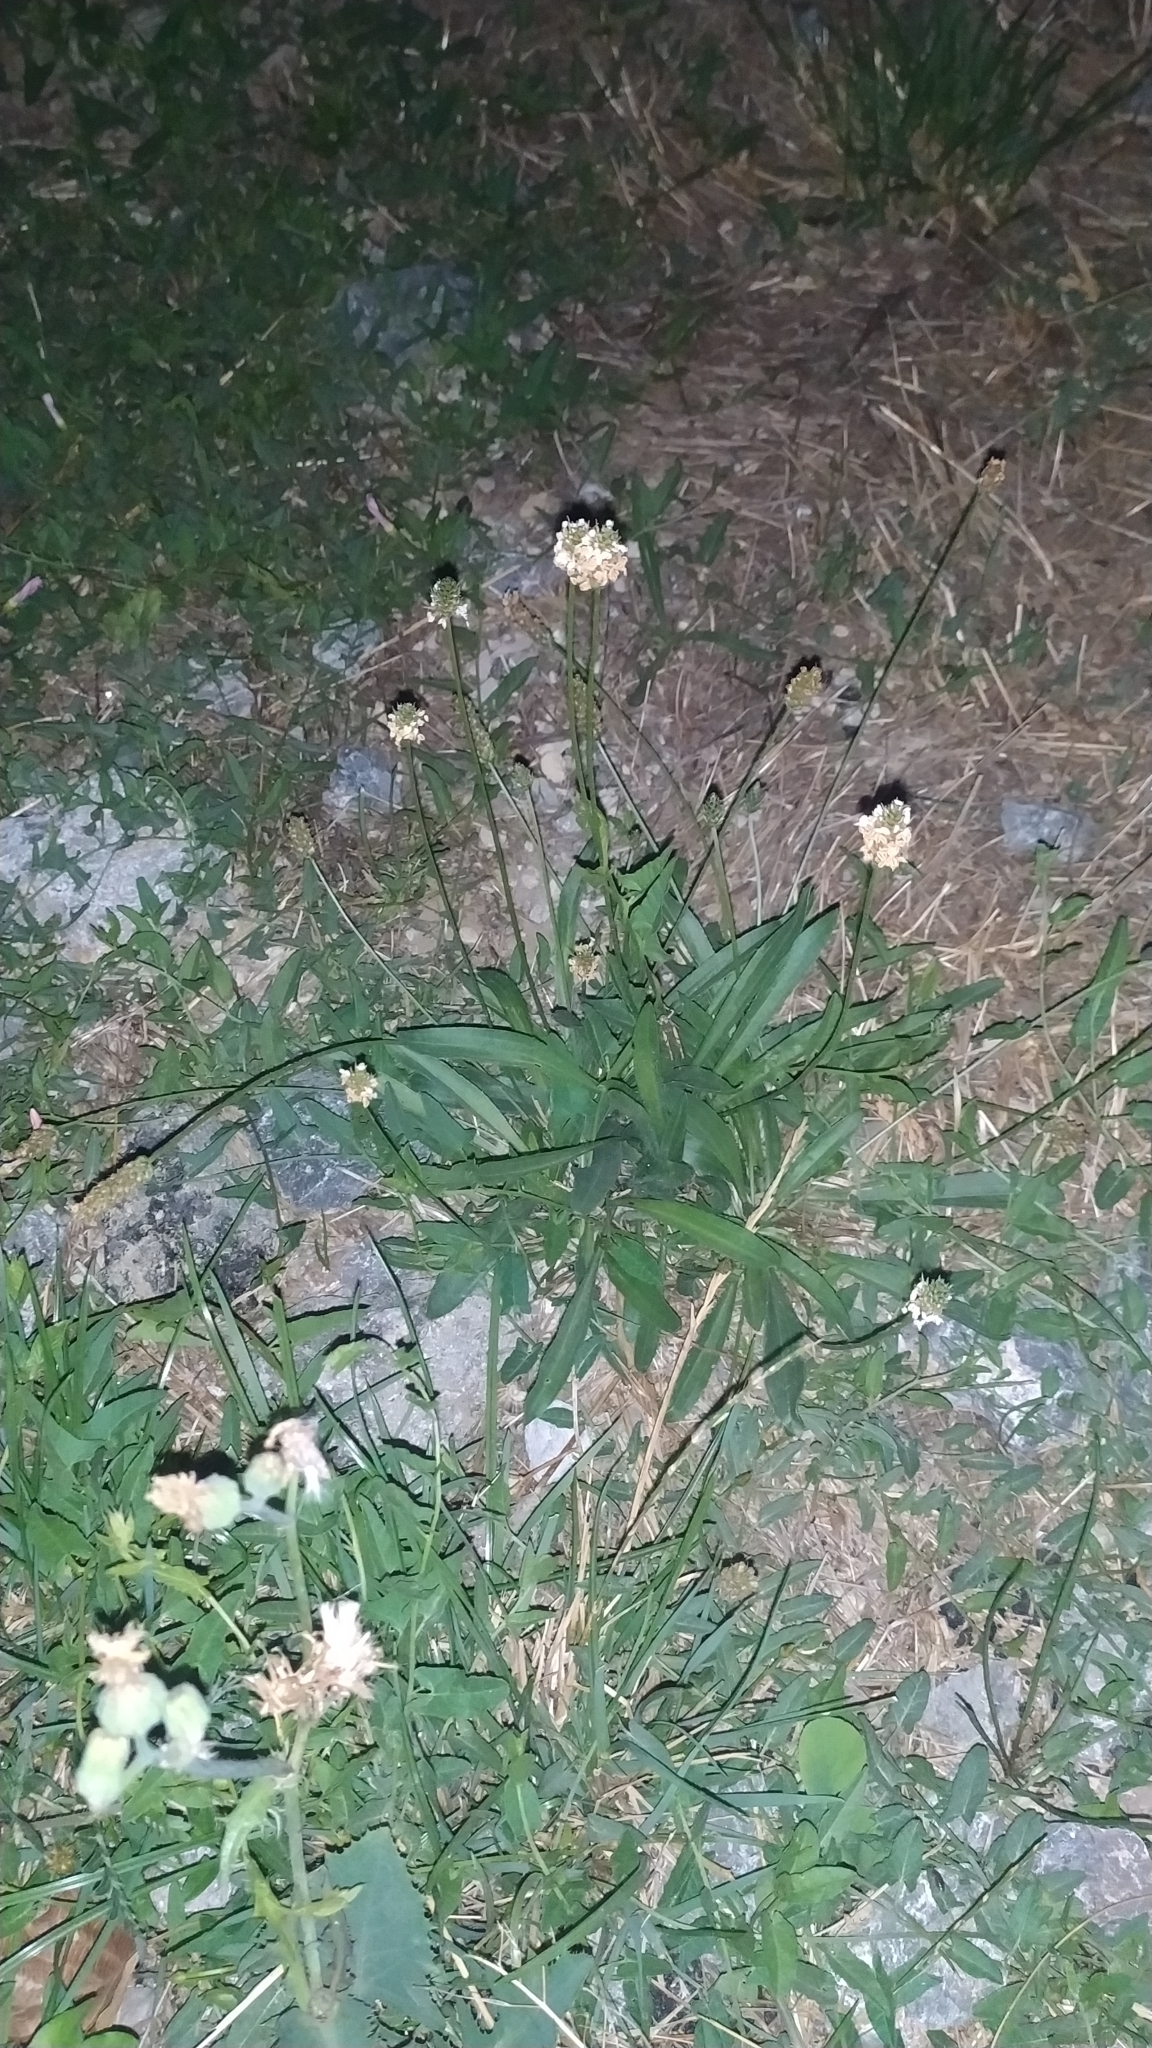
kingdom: Plantae
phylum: Tracheophyta
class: Magnoliopsida
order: Lamiales
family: Plantaginaceae
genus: Plantago
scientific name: Plantago lanceolata
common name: Ribwort plantain
